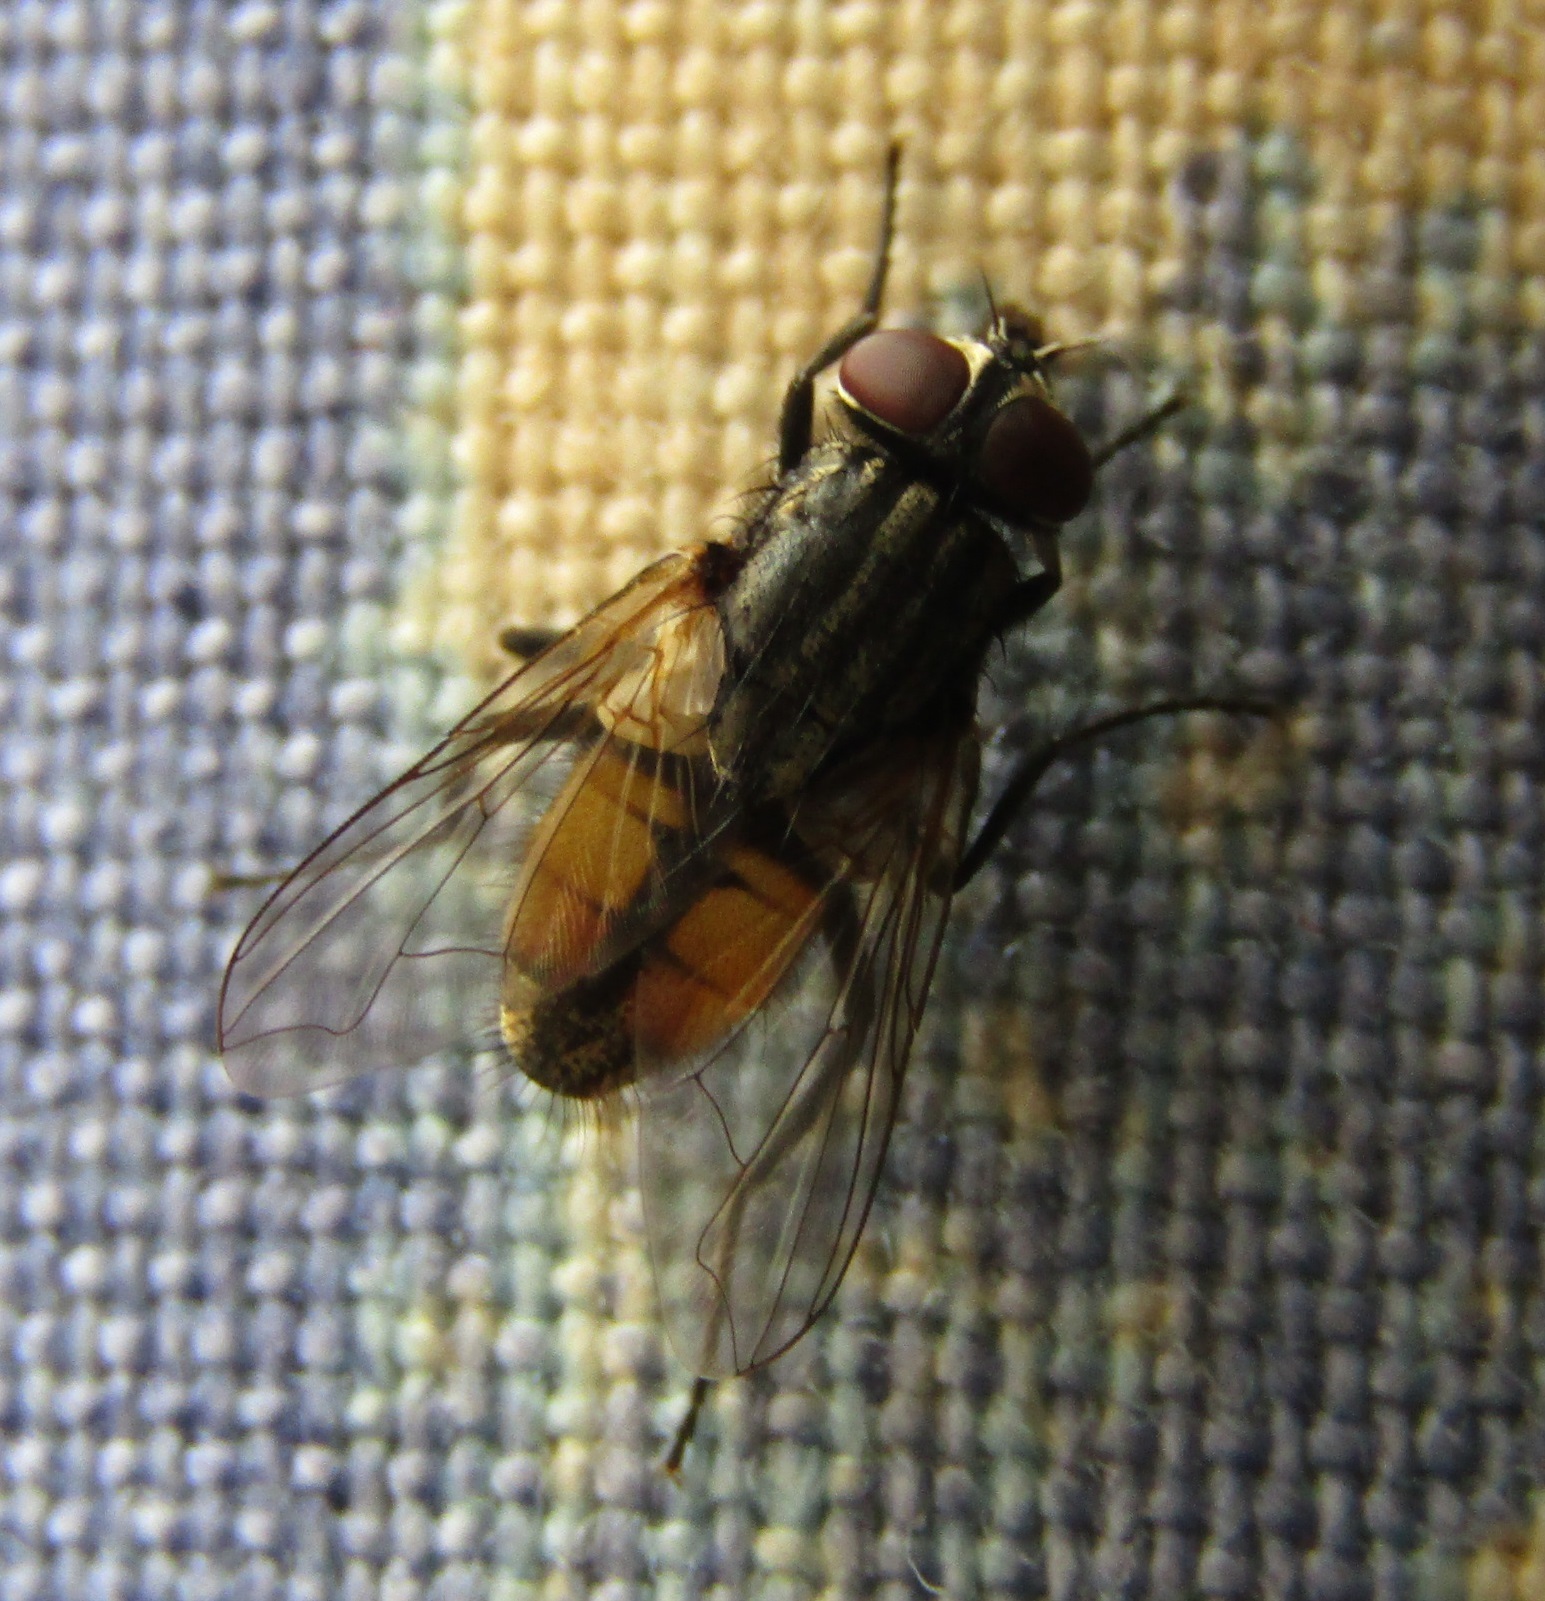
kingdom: Animalia
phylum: Arthropoda
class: Insecta
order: Diptera
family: Muscidae
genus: Musca
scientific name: Musca domestica
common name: House fly
